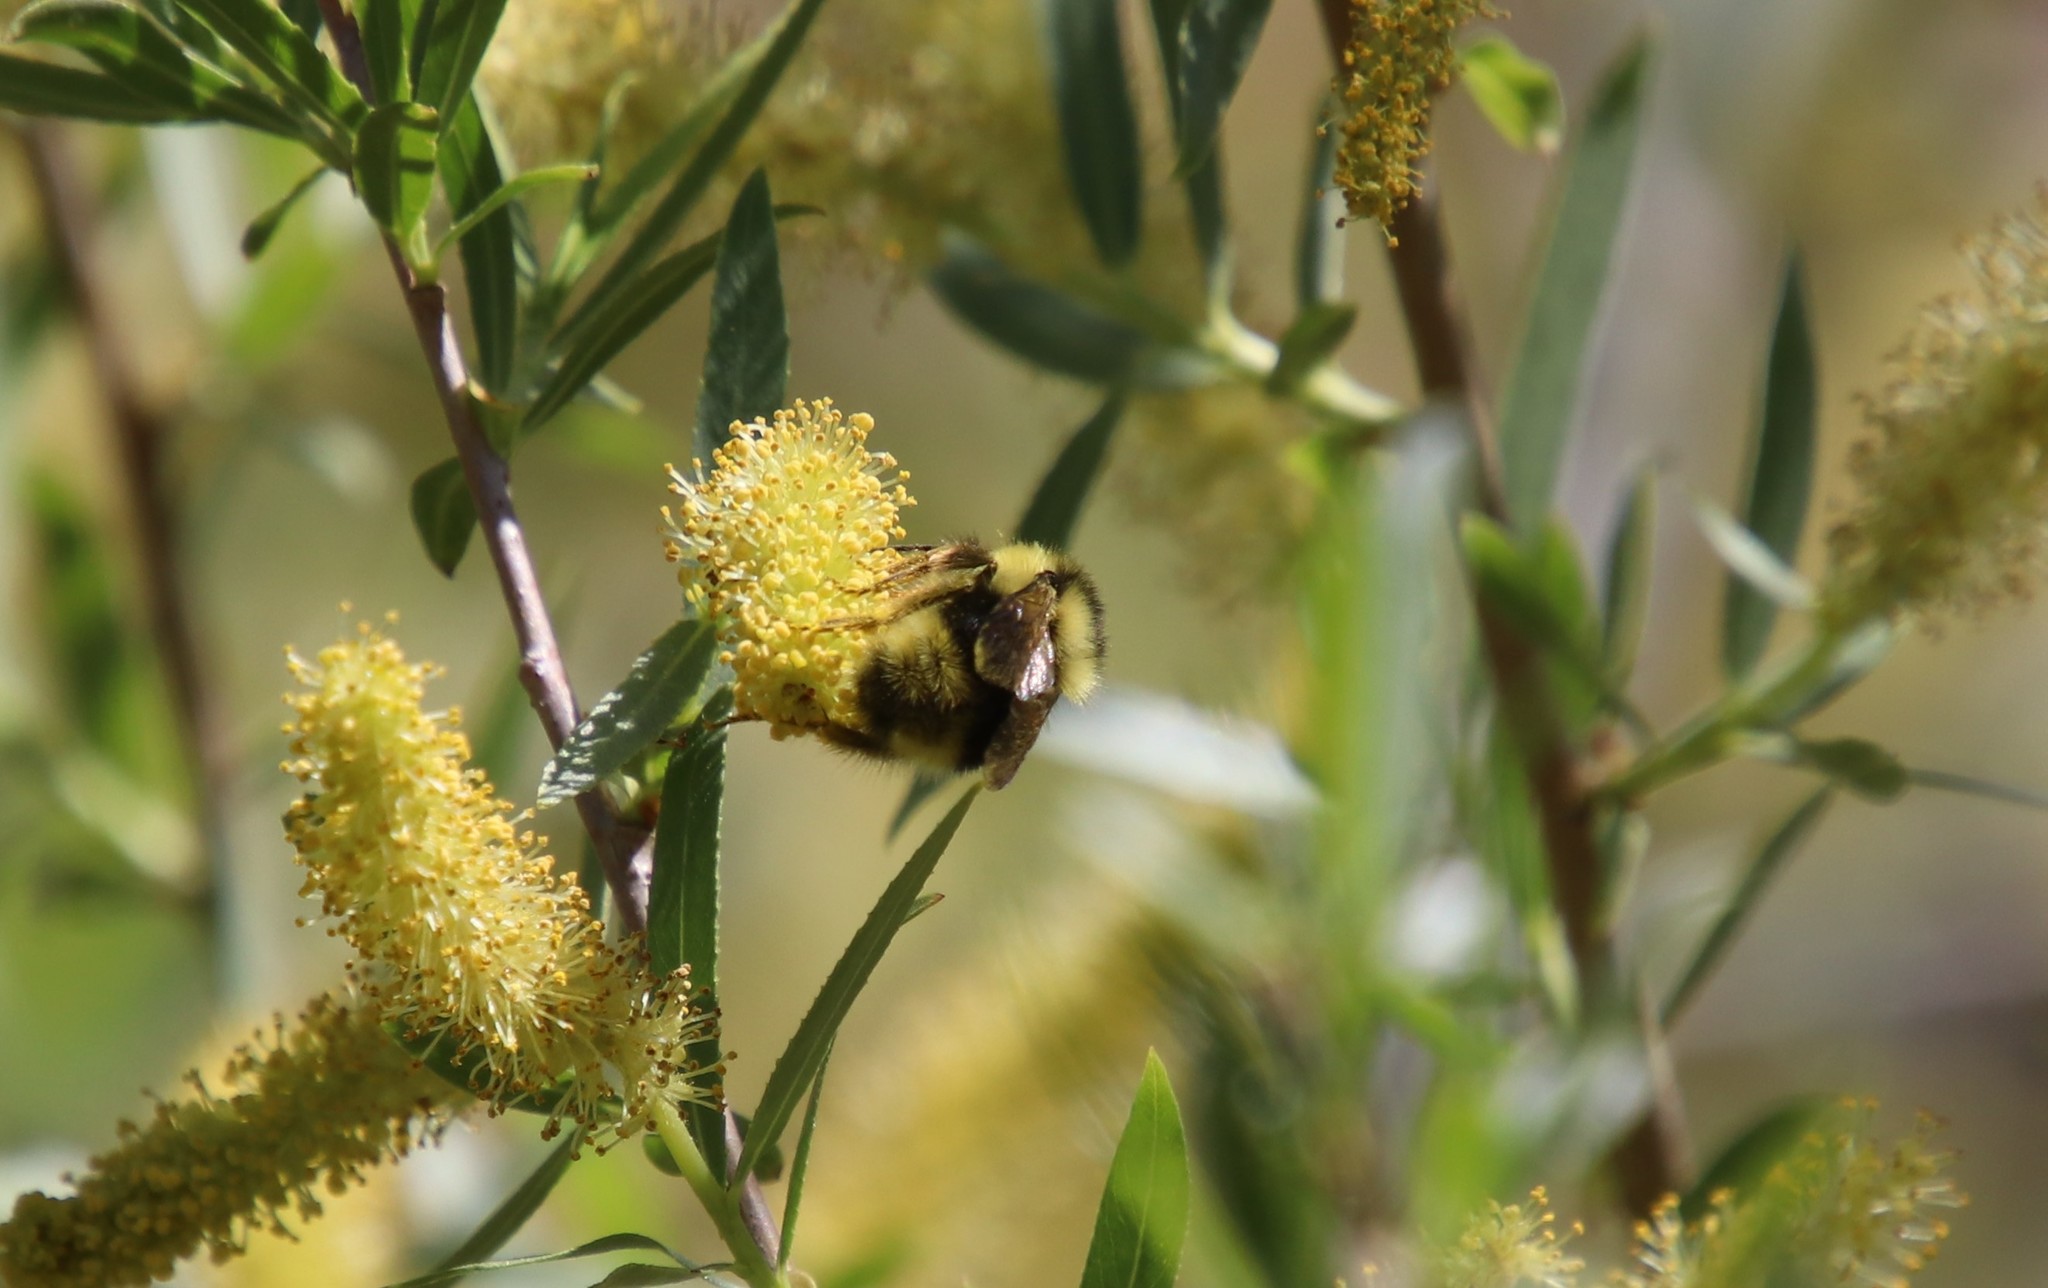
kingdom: Animalia
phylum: Arthropoda
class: Insecta
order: Hymenoptera
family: Apidae
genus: Bombus
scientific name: Bombus melanopygus
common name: Black tail bumble bee
